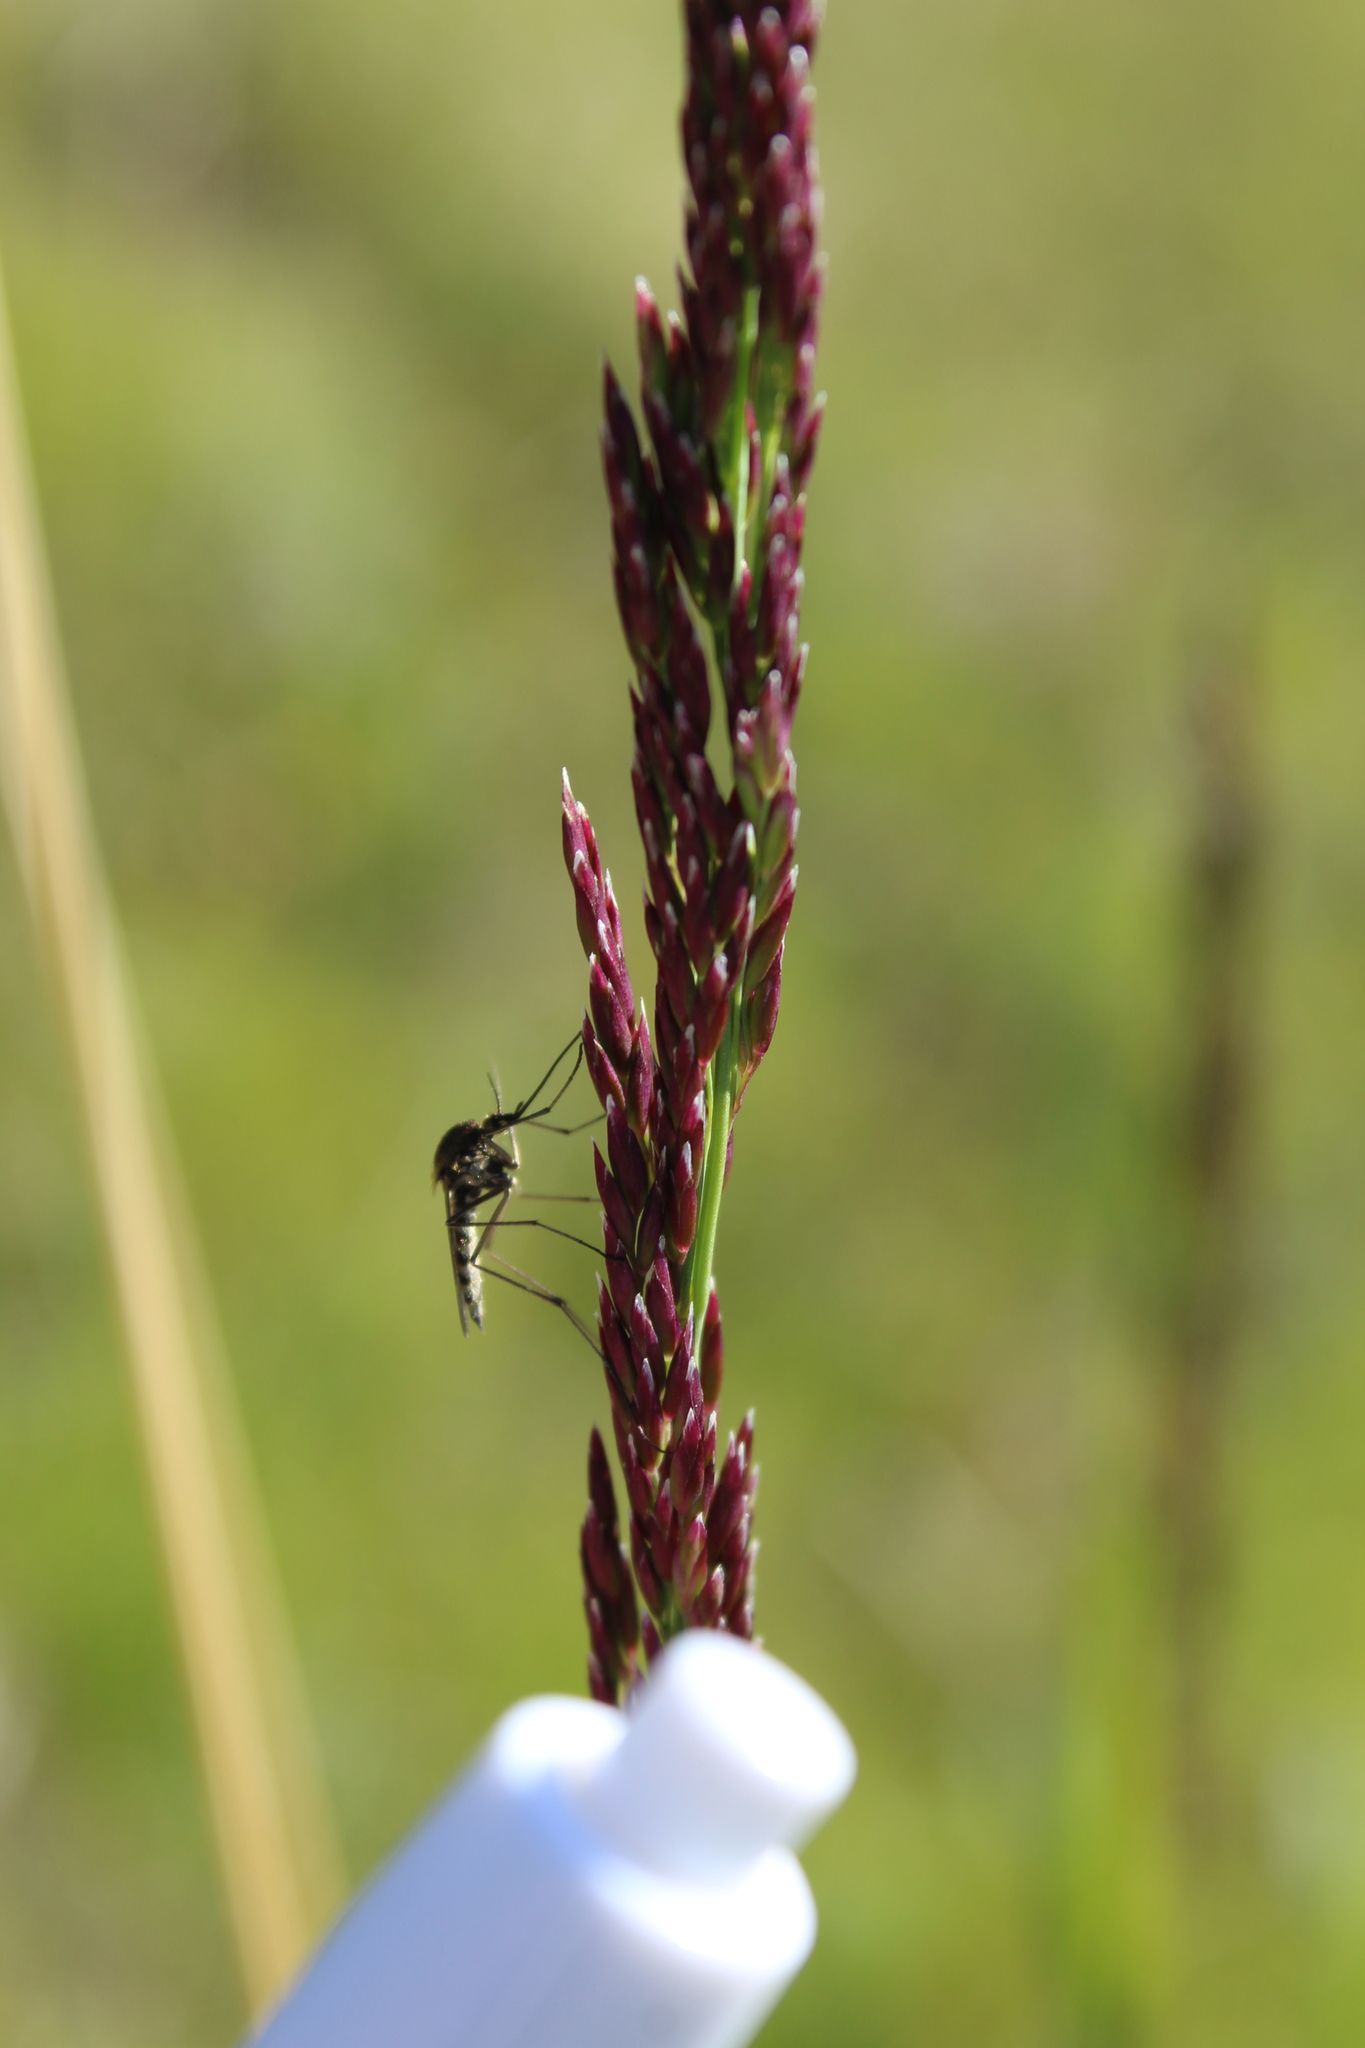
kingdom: Plantae
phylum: Tracheophyta
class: Liliopsida
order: Poales
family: Poaceae
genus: Calamagrostis
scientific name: Calamagrostis purpurea
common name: Scandinavian small-reed
